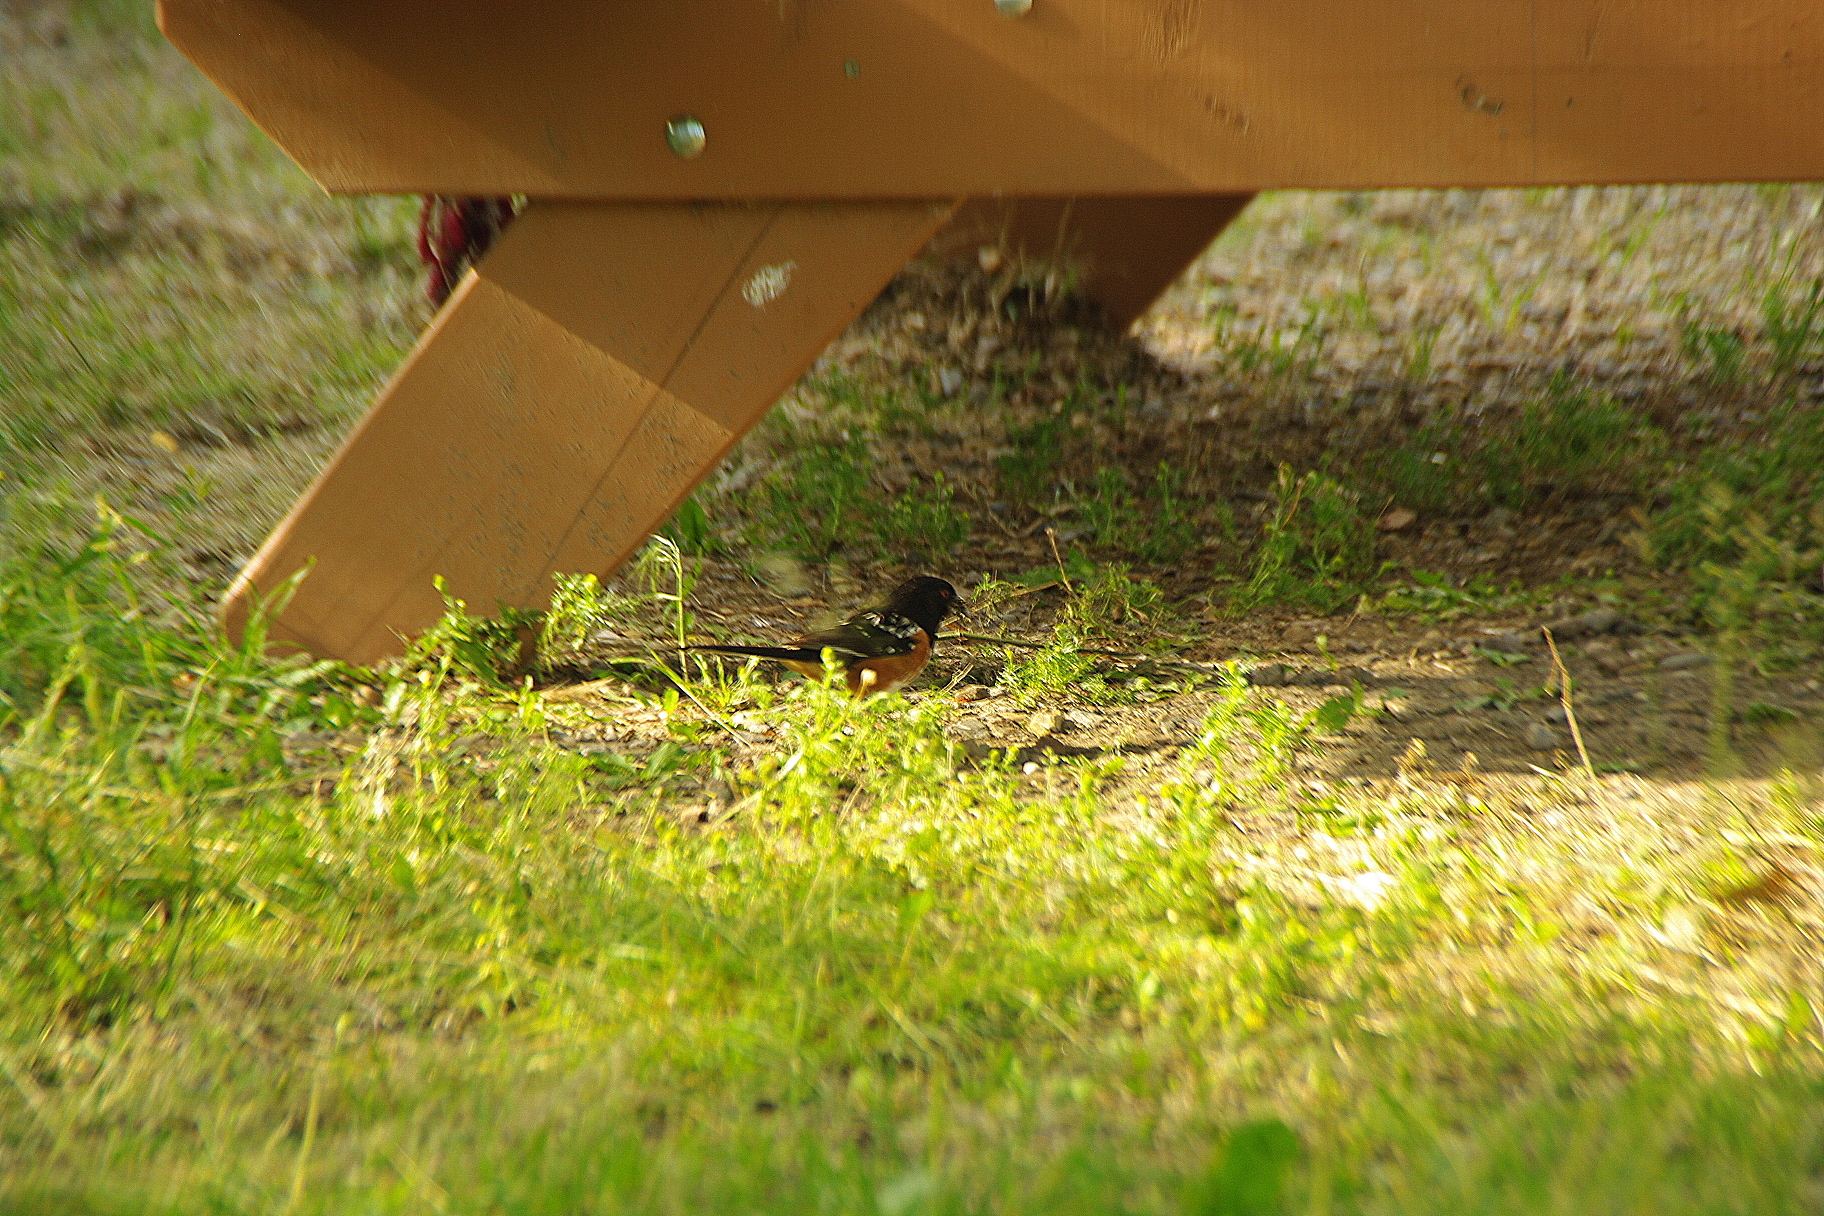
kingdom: Animalia
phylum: Chordata
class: Aves
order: Passeriformes
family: Passerellidae
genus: Pipilo
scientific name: Pipilo maculatus
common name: Spotted towhee
